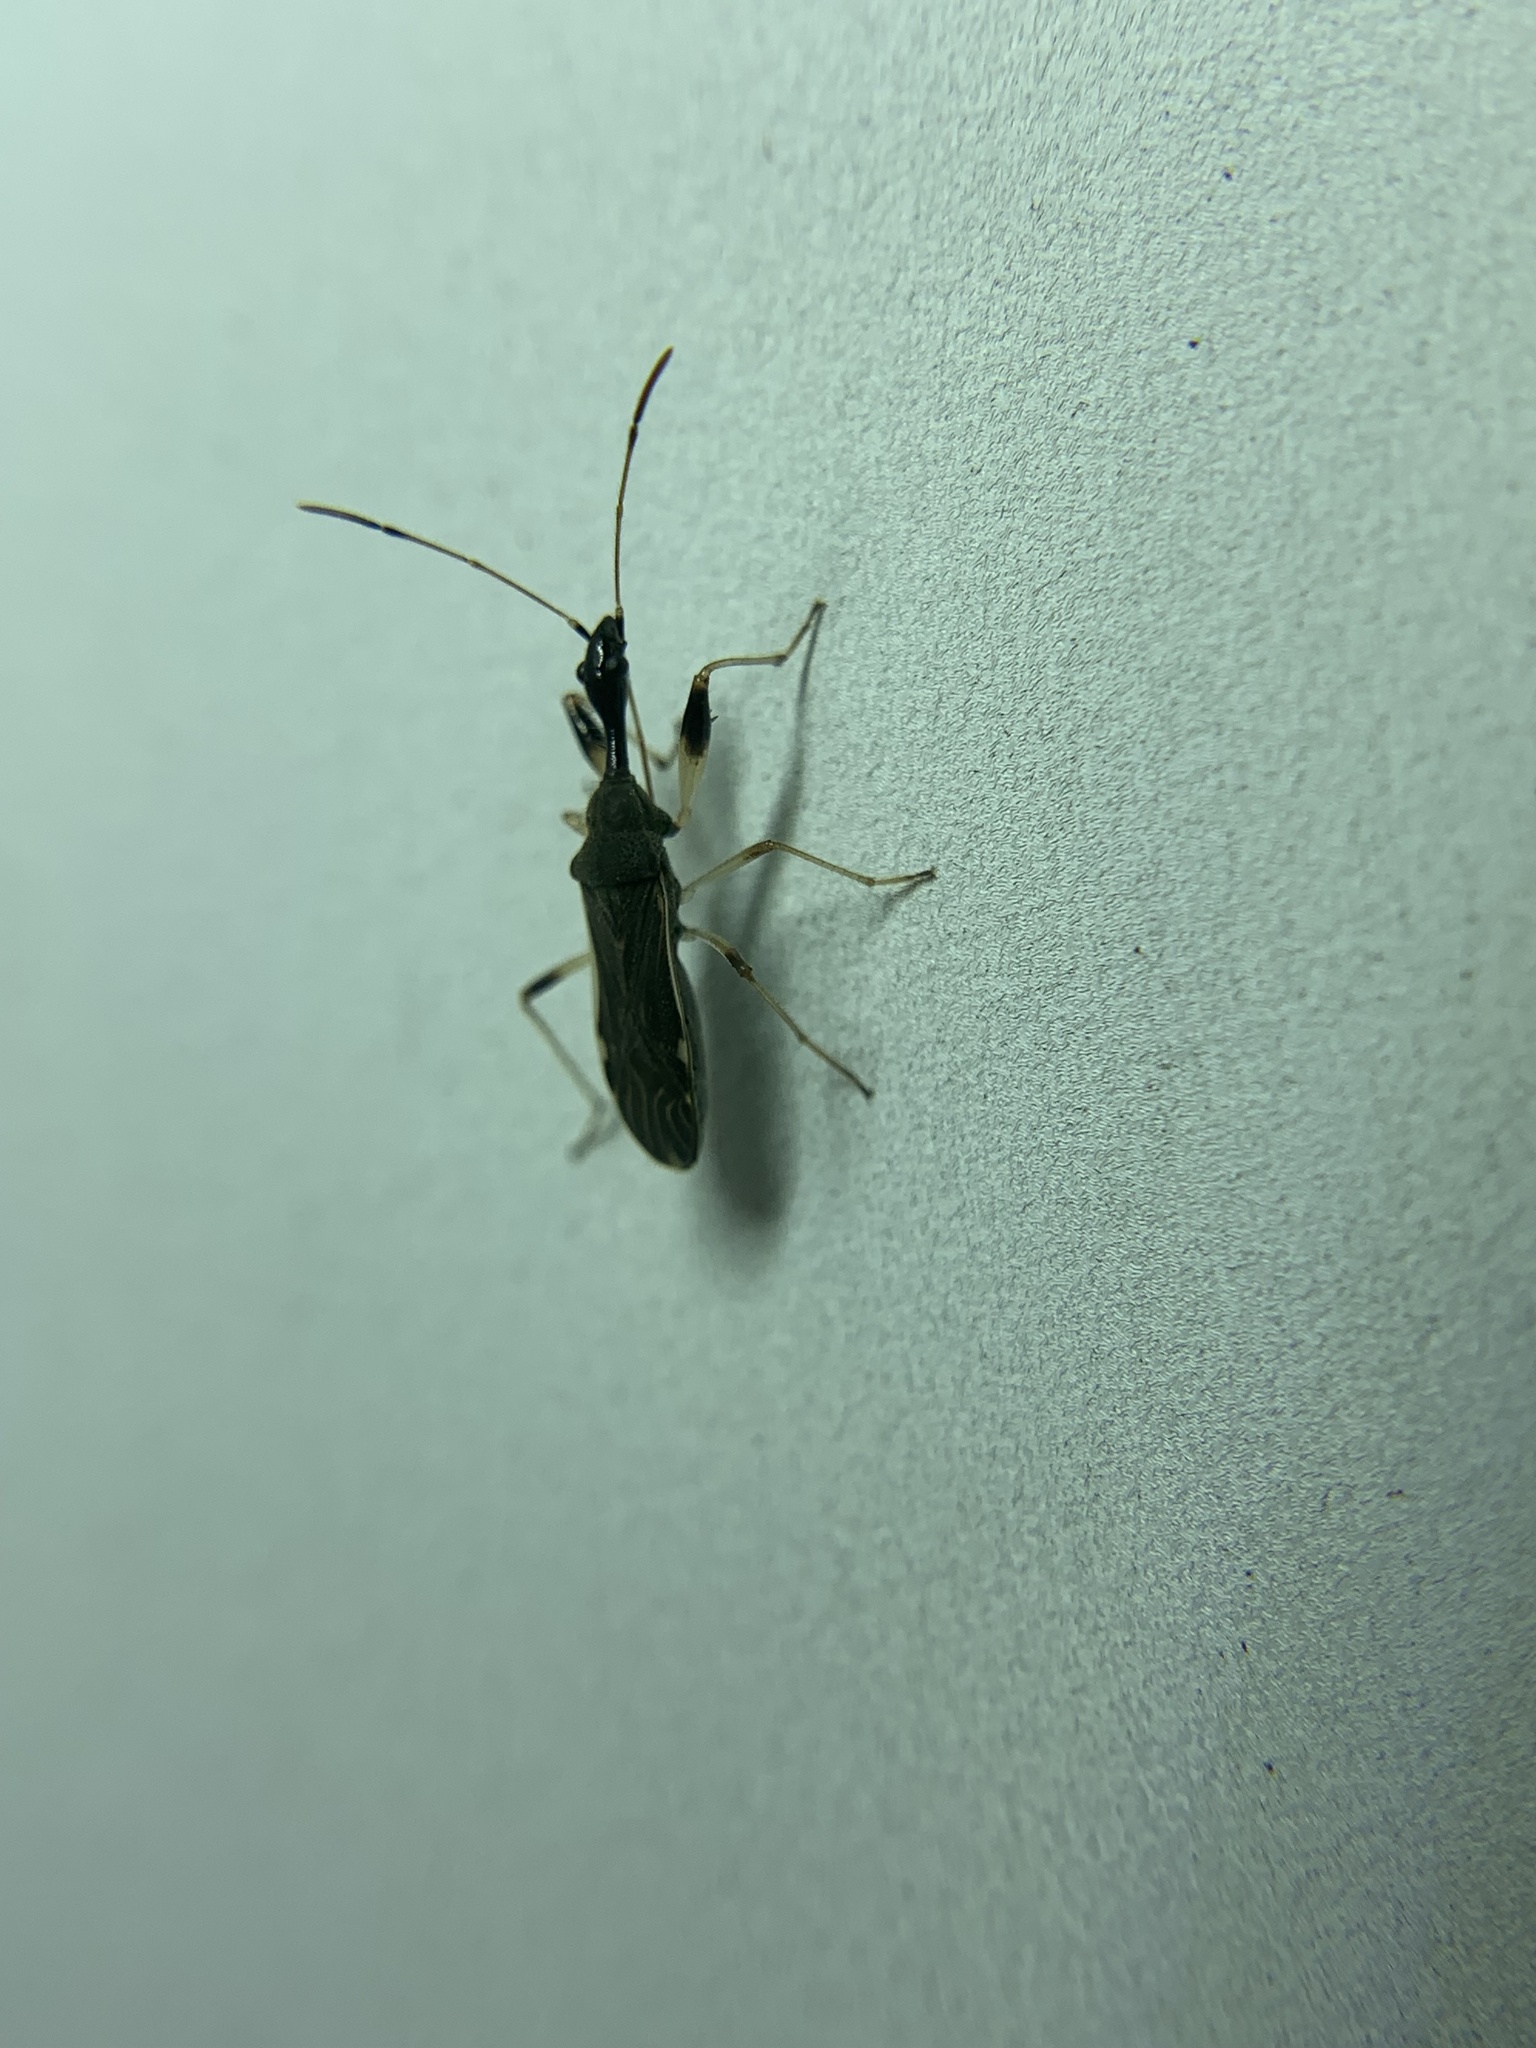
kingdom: Animalia
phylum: Arthropoda
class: Insecta
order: Hemiptera
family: Rhyparochromidae
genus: Myodocha
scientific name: Myodocha serripes
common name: Long-necked seed bug
